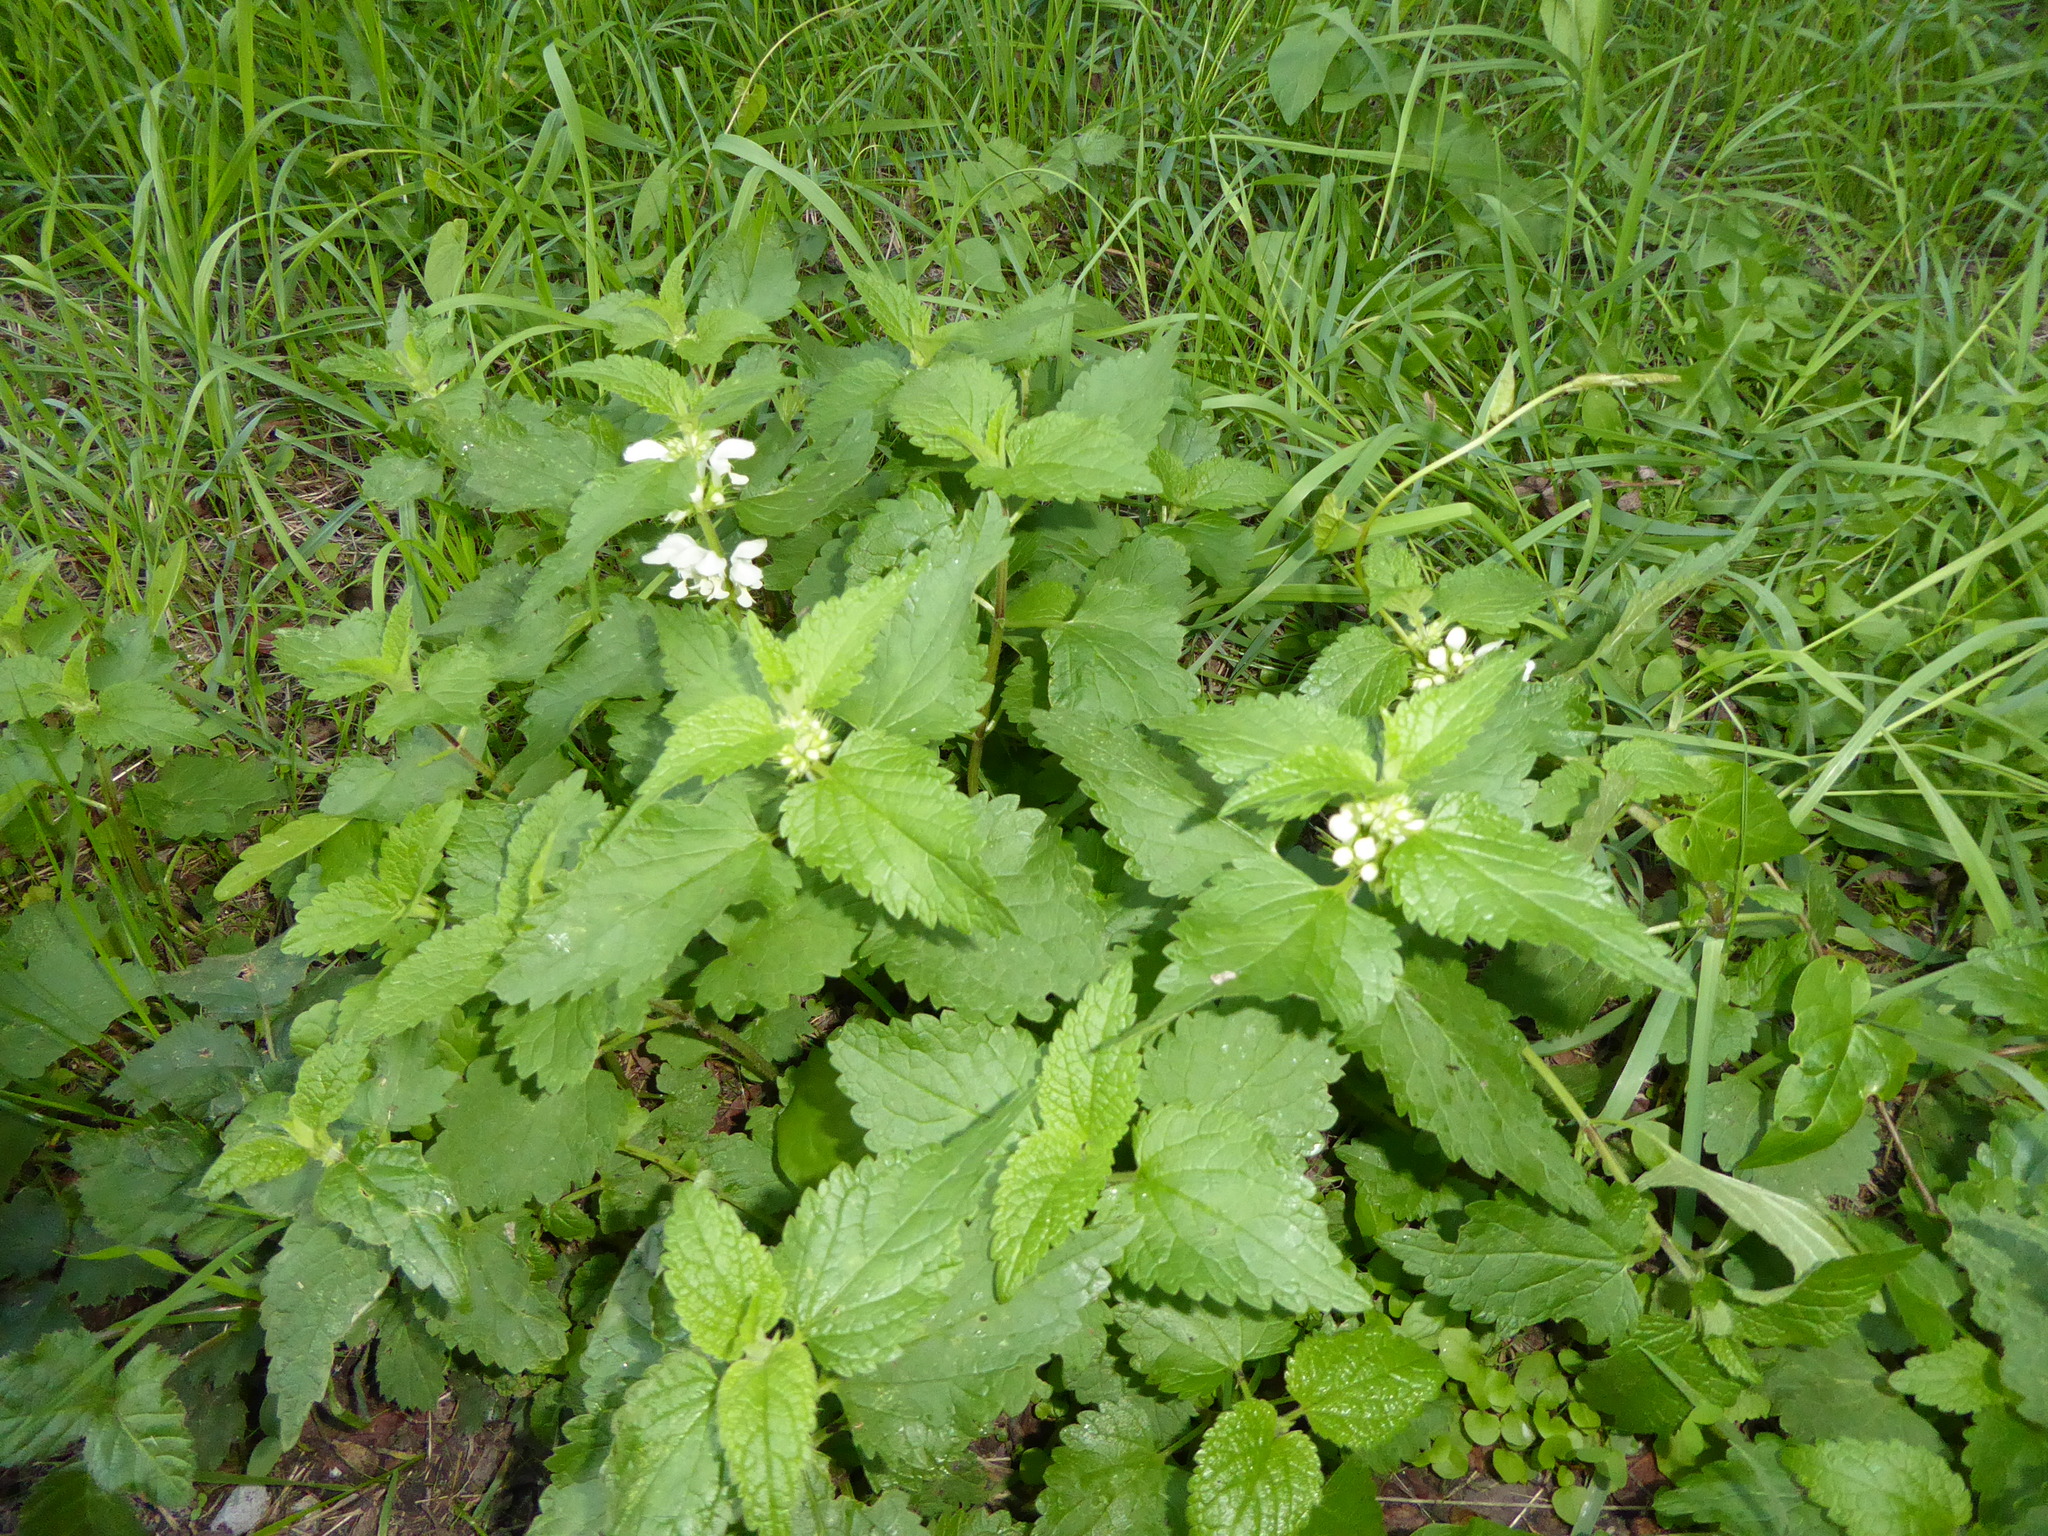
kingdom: Plantae
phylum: Tracheophyta
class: Magnoliopsida
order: Lamiales
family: Lamiaceae
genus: Lamium
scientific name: Lamium album
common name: White dead-nettle
